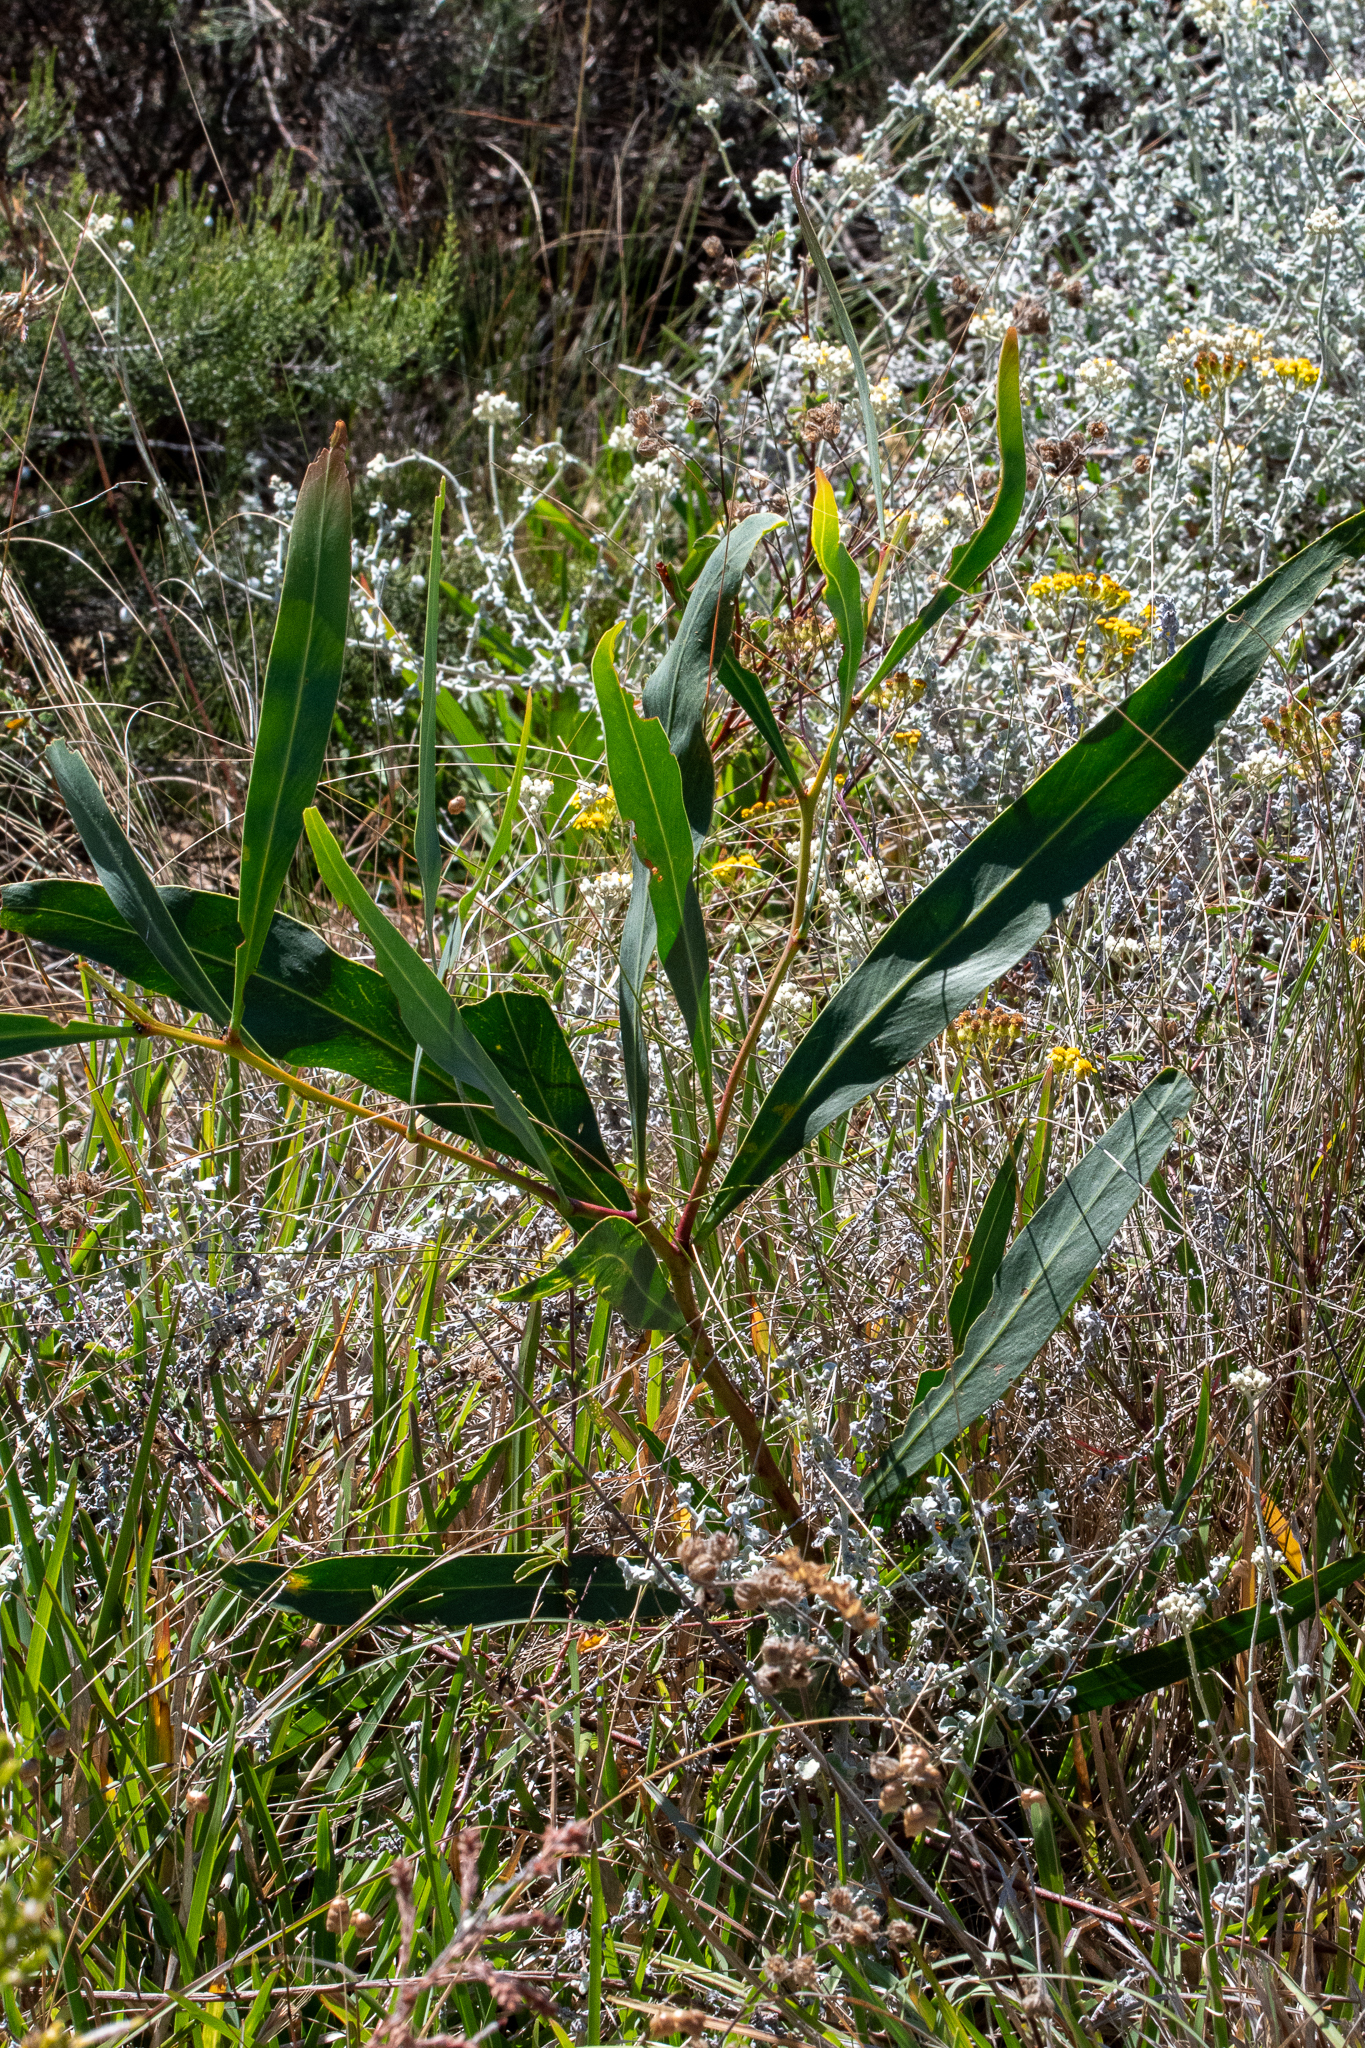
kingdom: Plantae
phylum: Tracheophyta
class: Magnoliopsida
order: Fabales
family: Fabaceae
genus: Acacia
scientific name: Acacia saligna
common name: Orange wattle
